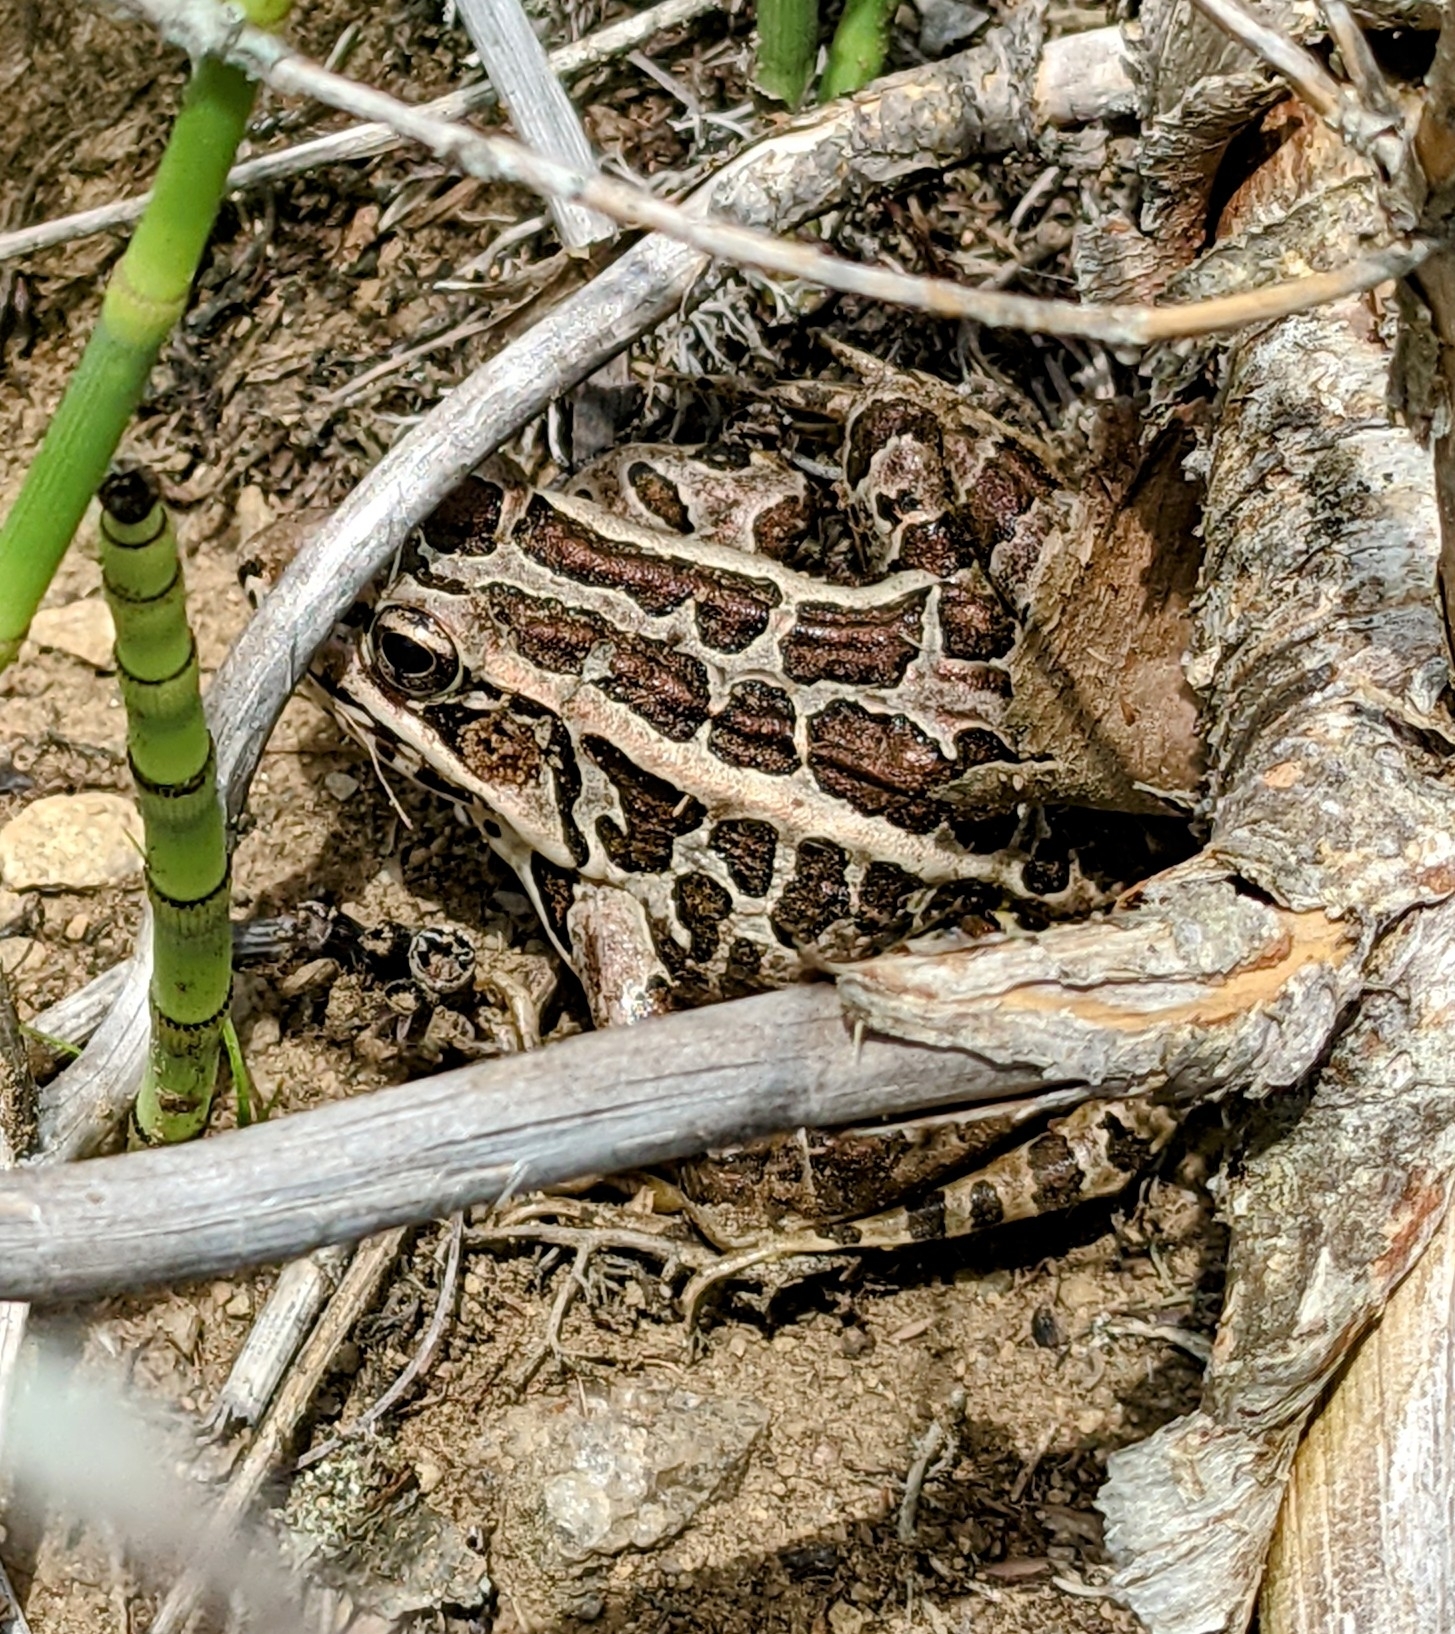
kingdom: Animalia
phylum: Chordata
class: Amphibia
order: Anura
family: Ranidae
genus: Lithobates
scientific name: Lithobates palustris
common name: Pickerel frog
